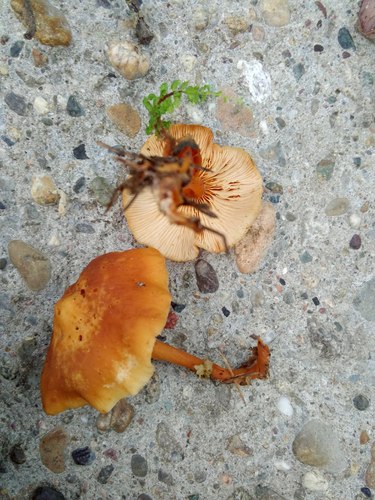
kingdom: Fungi
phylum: Basidiomycota
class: Agaricomycetes
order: Agaricales
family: Omphalotaceae
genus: Gymnopus
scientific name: Gymnopus dryophilus
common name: Penny top
